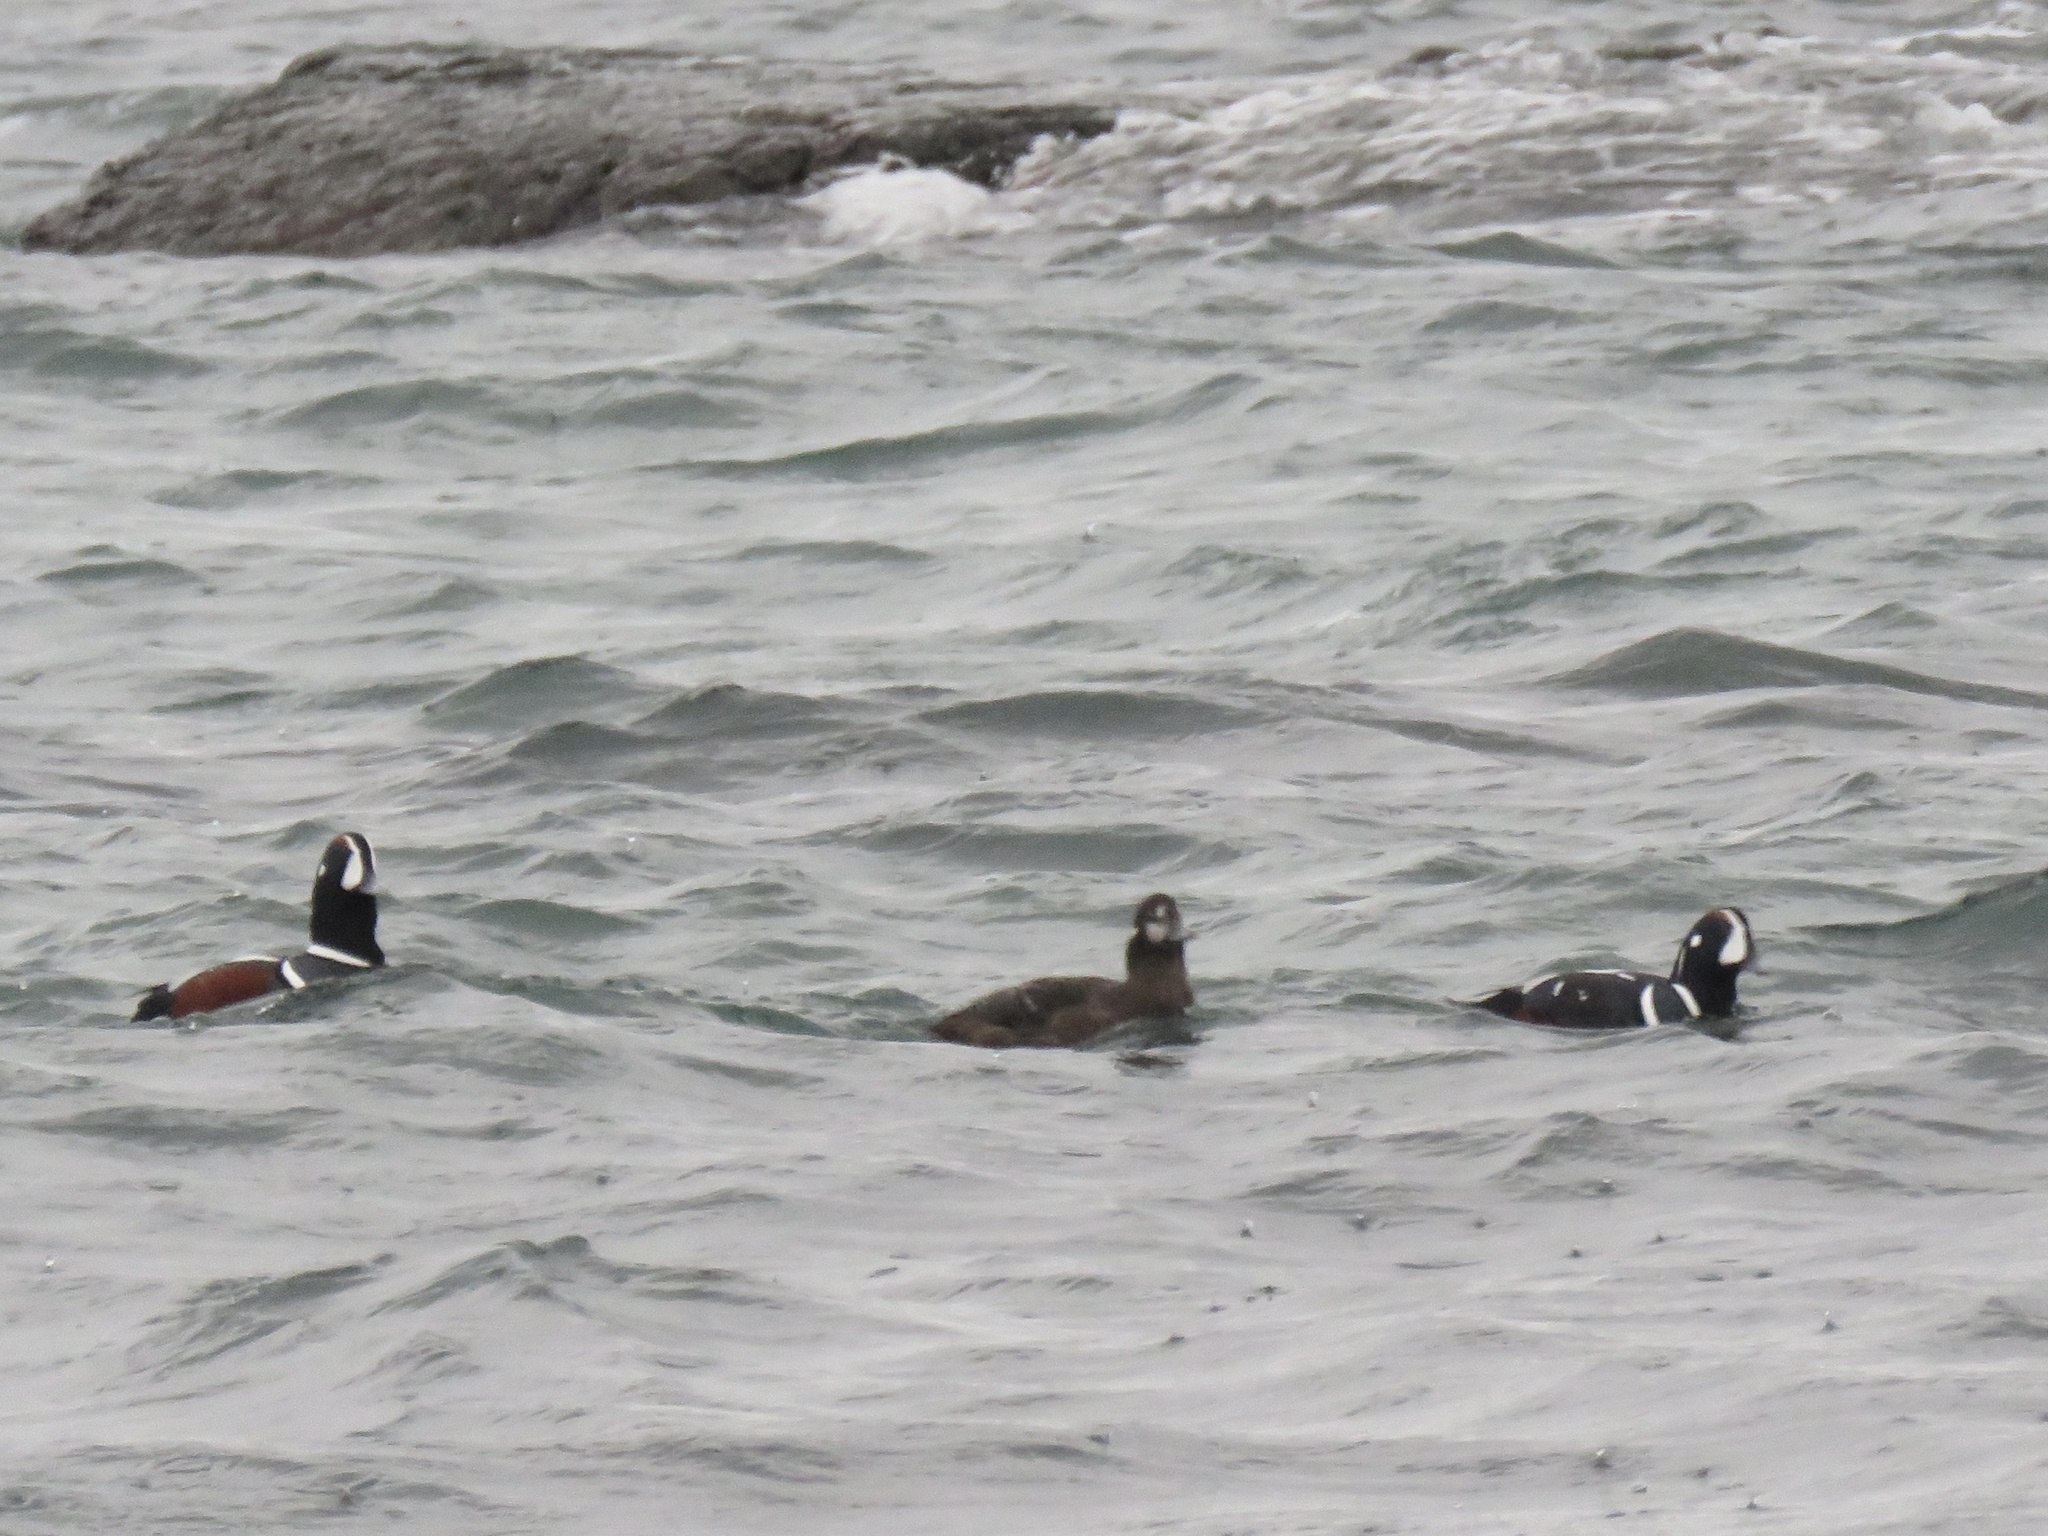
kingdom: Animalia
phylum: Chordata
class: Aves
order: Anseriformes
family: Anatidae
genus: Histrionicus
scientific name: Histrionicus histrionicus
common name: Harlequin duck
